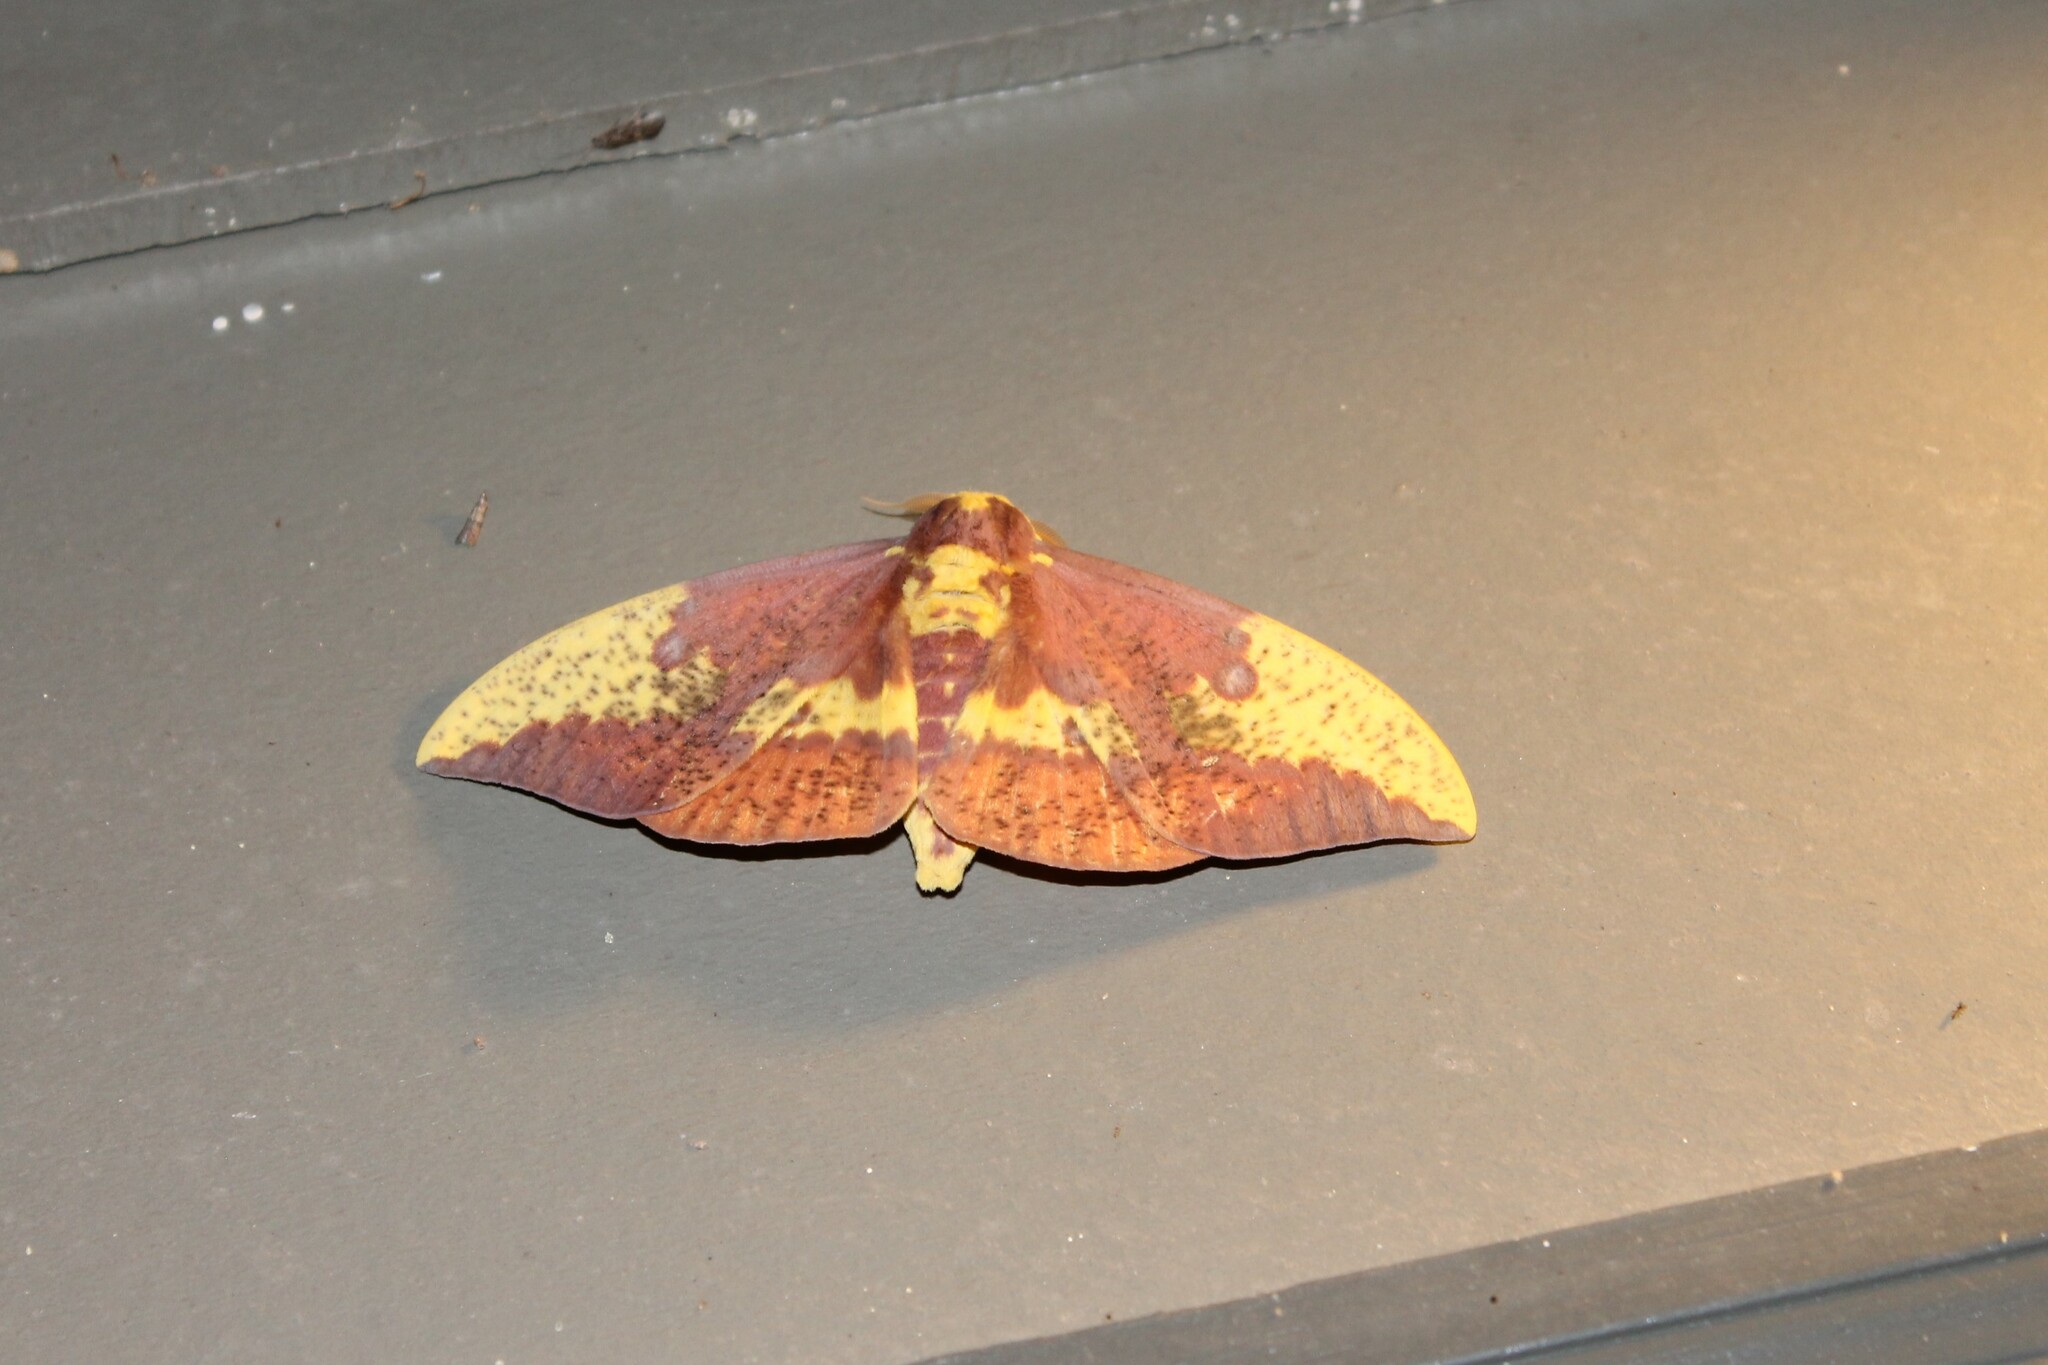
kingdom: Animalia
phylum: Arthropoda
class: Insecta
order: Lepidoptera
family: Saturniidae
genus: Eacles
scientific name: Eacles imperialis
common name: Imperial moth
